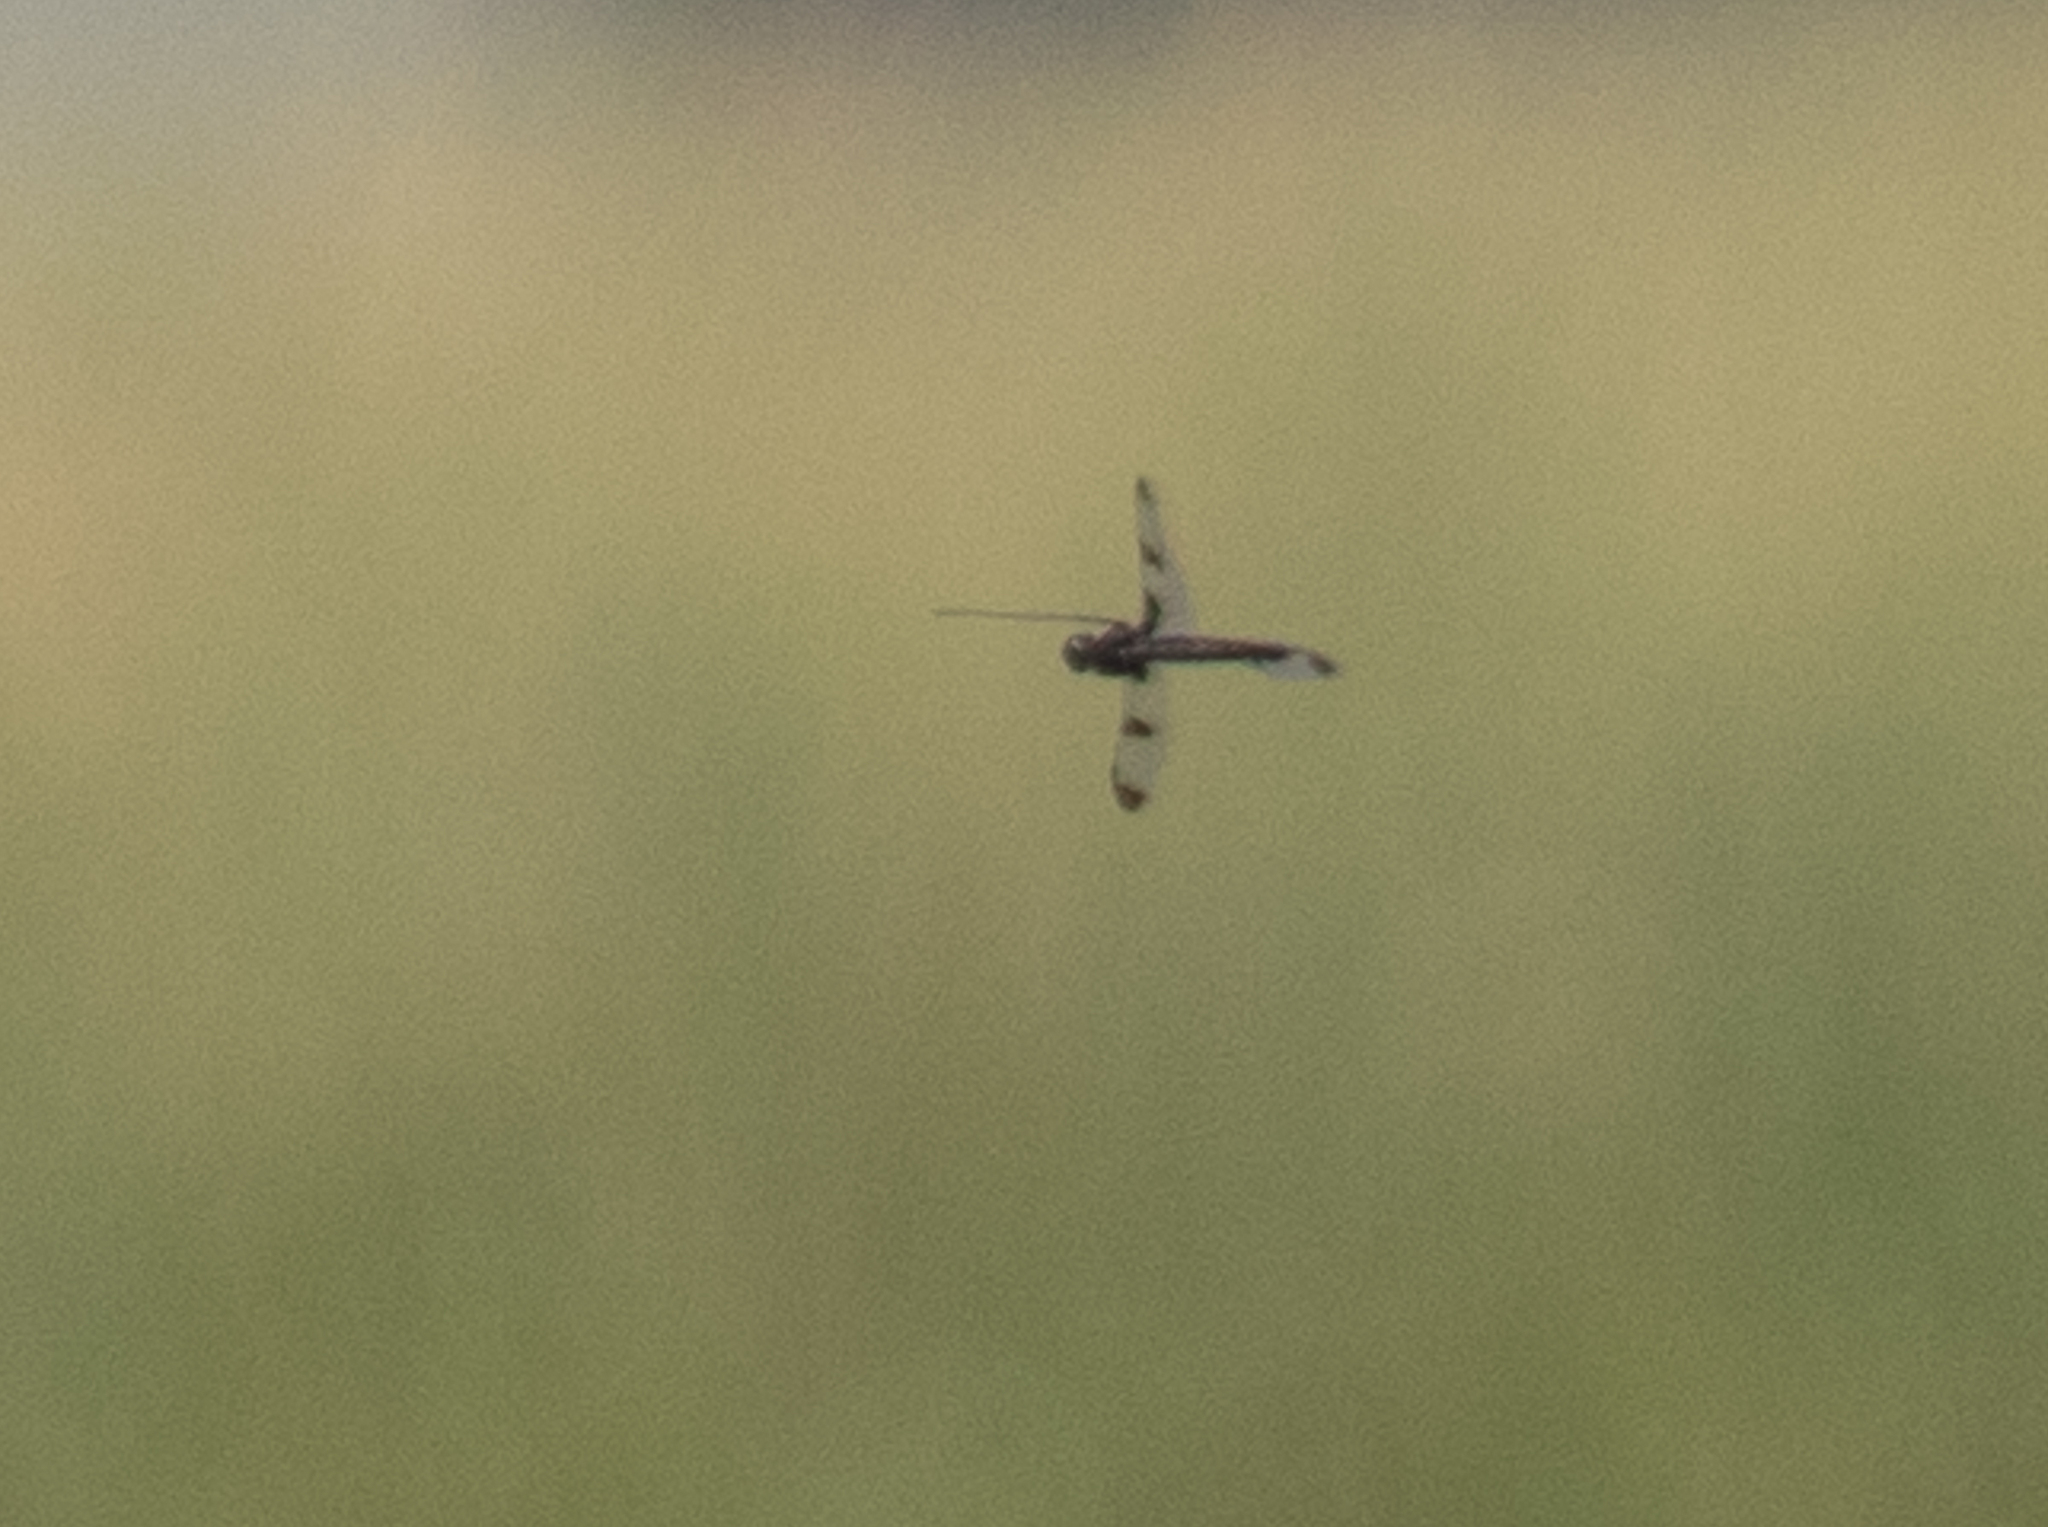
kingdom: Animalia
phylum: Arthropoda
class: Insecta
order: Odonata
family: Corduliidae
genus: Epitheca
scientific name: Epitheca princeps
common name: Prince baskettail
